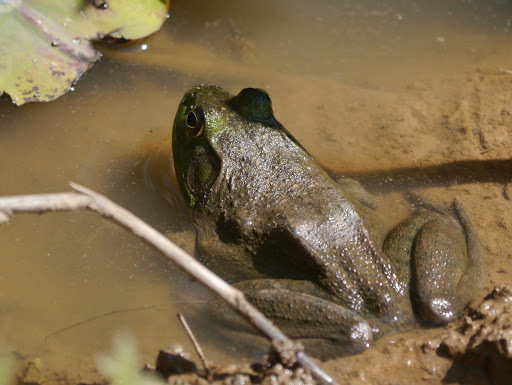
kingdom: Animalia
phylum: Chordata
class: Amphibia
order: Anura
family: Ranidae
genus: Lithobates
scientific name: Lithobates catesbeianus
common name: American bullfrog
